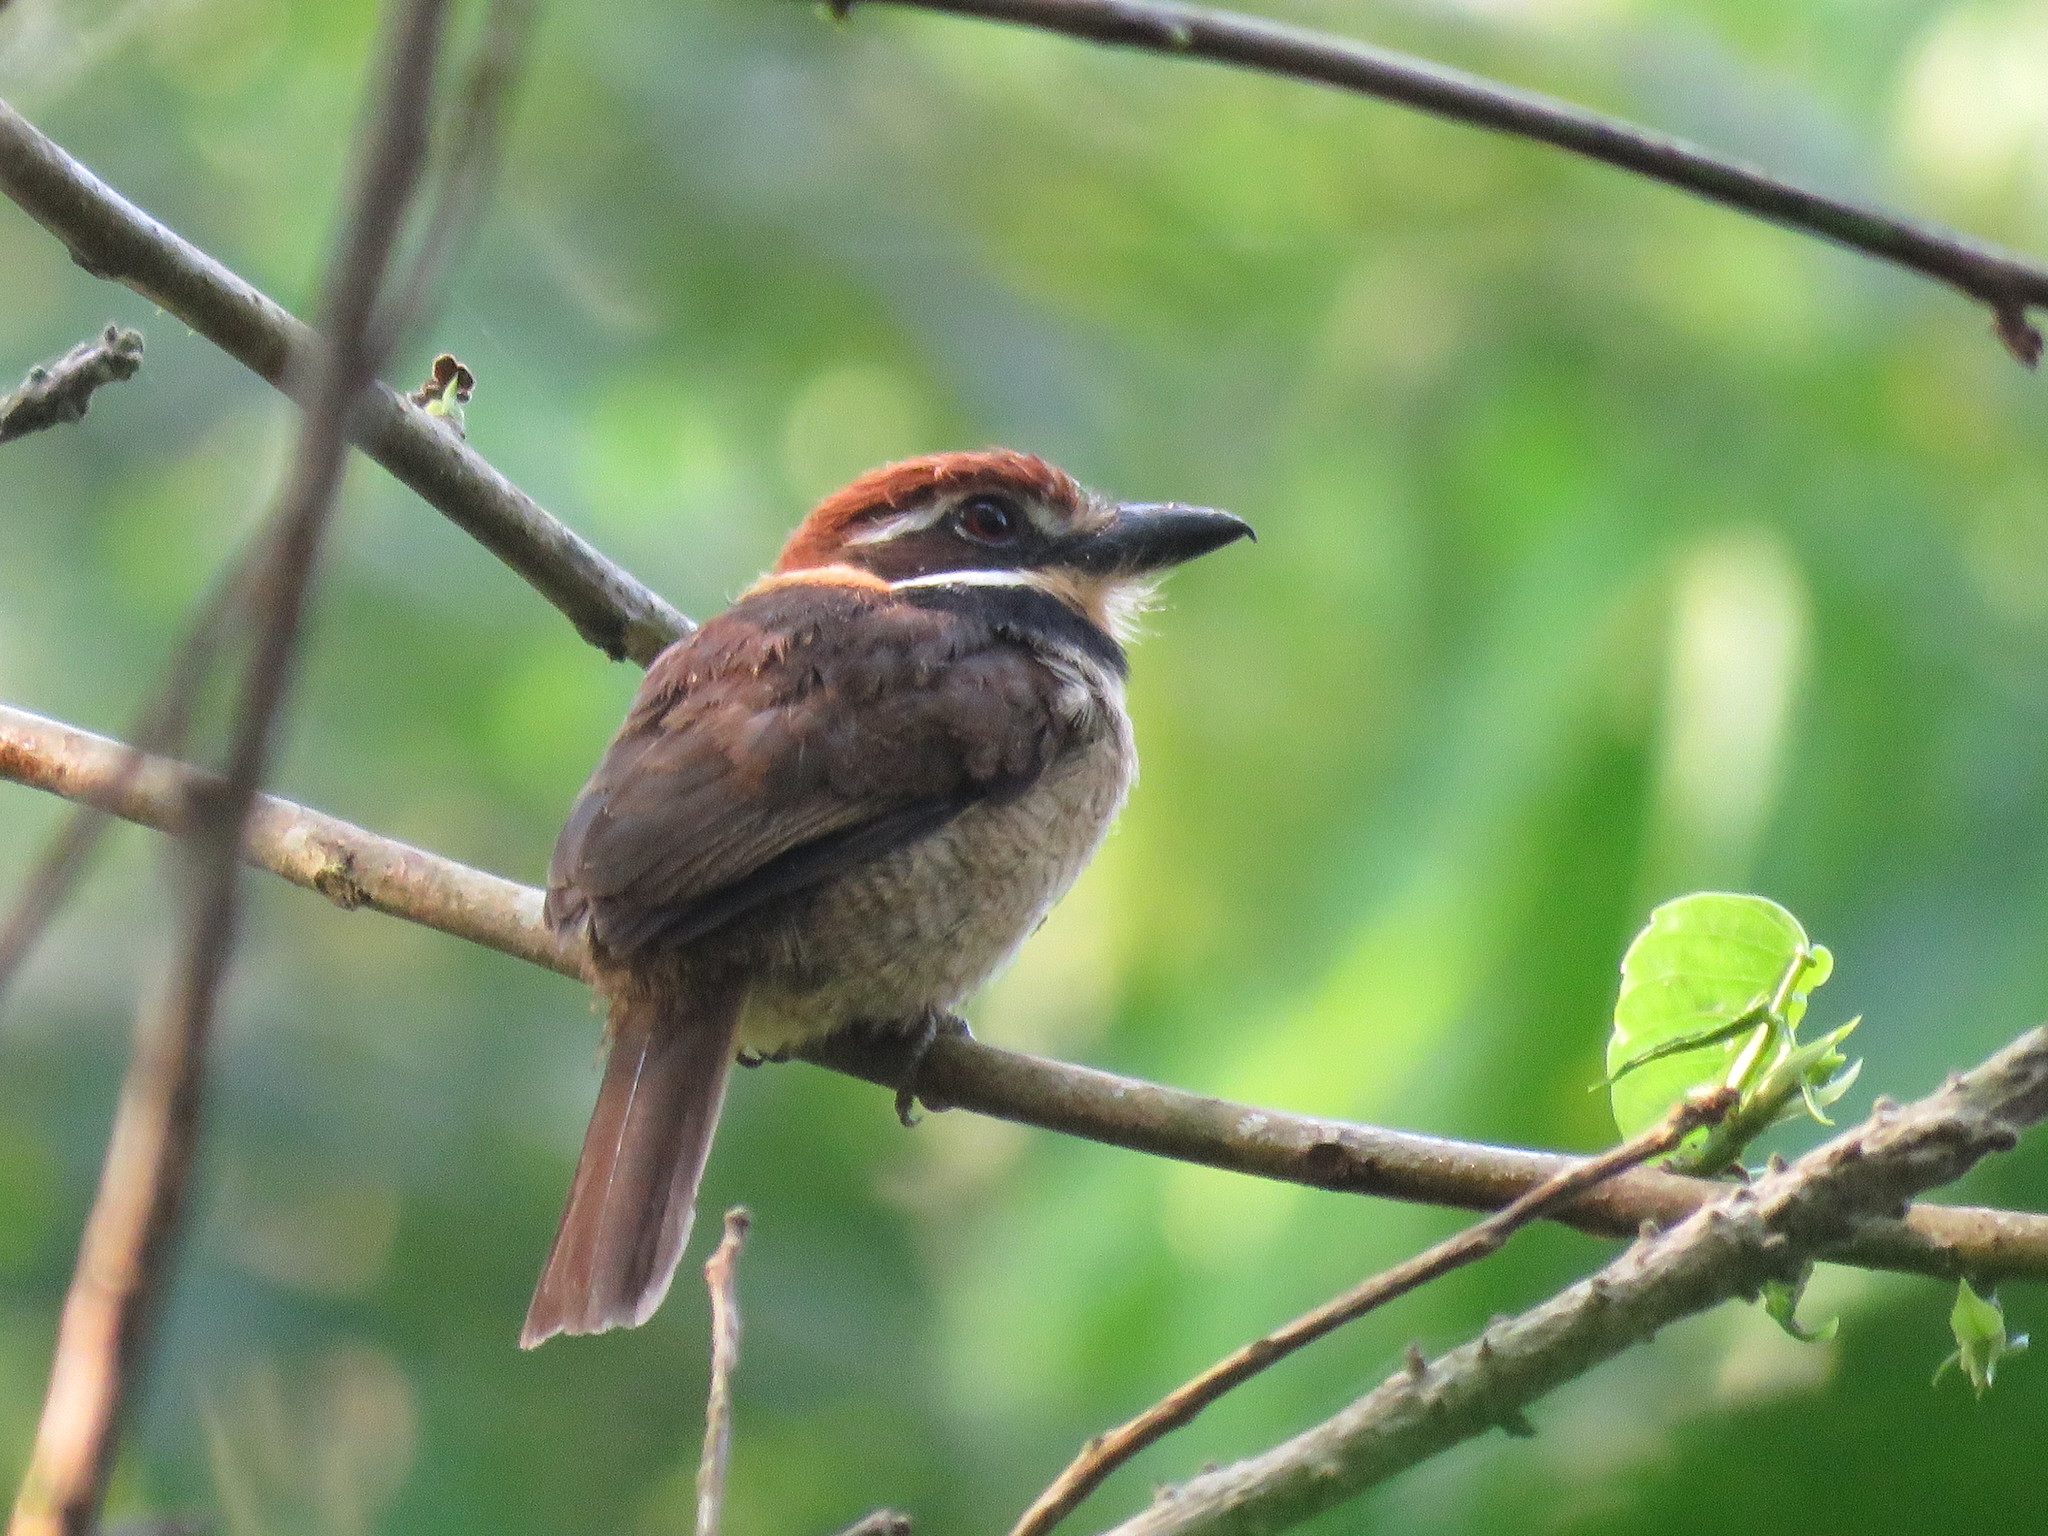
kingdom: Animalia
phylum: Chordata
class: Aves
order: Piciformes
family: Bucconidae
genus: Bucco
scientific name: Bucco macrodactylus
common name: Chestnut-capped puffbird
